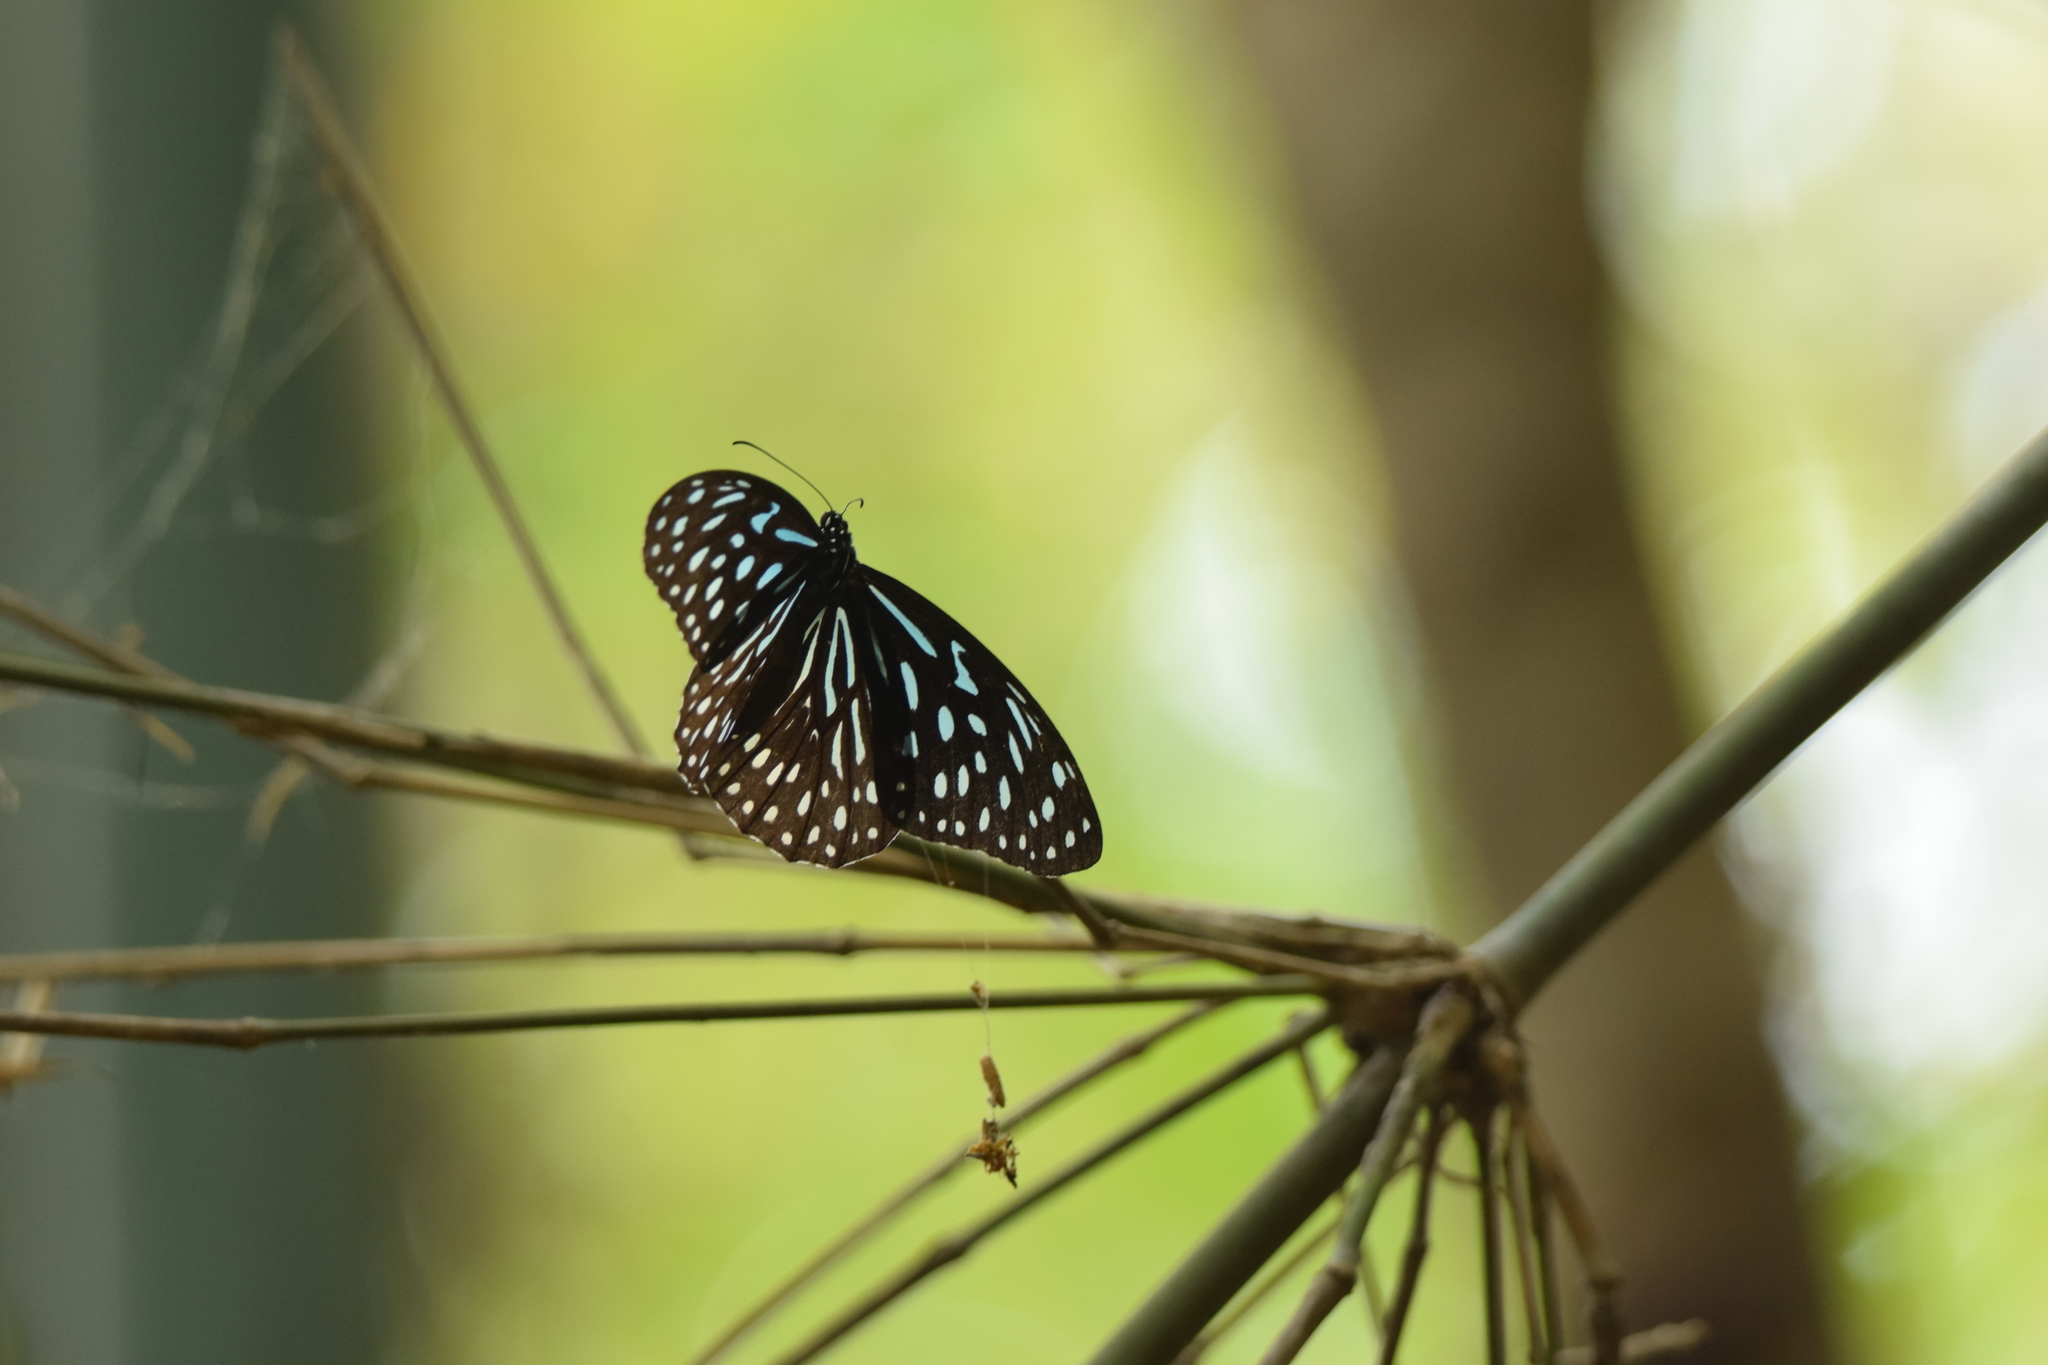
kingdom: Animalia
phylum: Arthropoda
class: Insecta
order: Lepidoptera
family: Nymphalidae
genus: Tirumala
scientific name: Tirumala septentrionis
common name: Dark blue tiger butterfly
